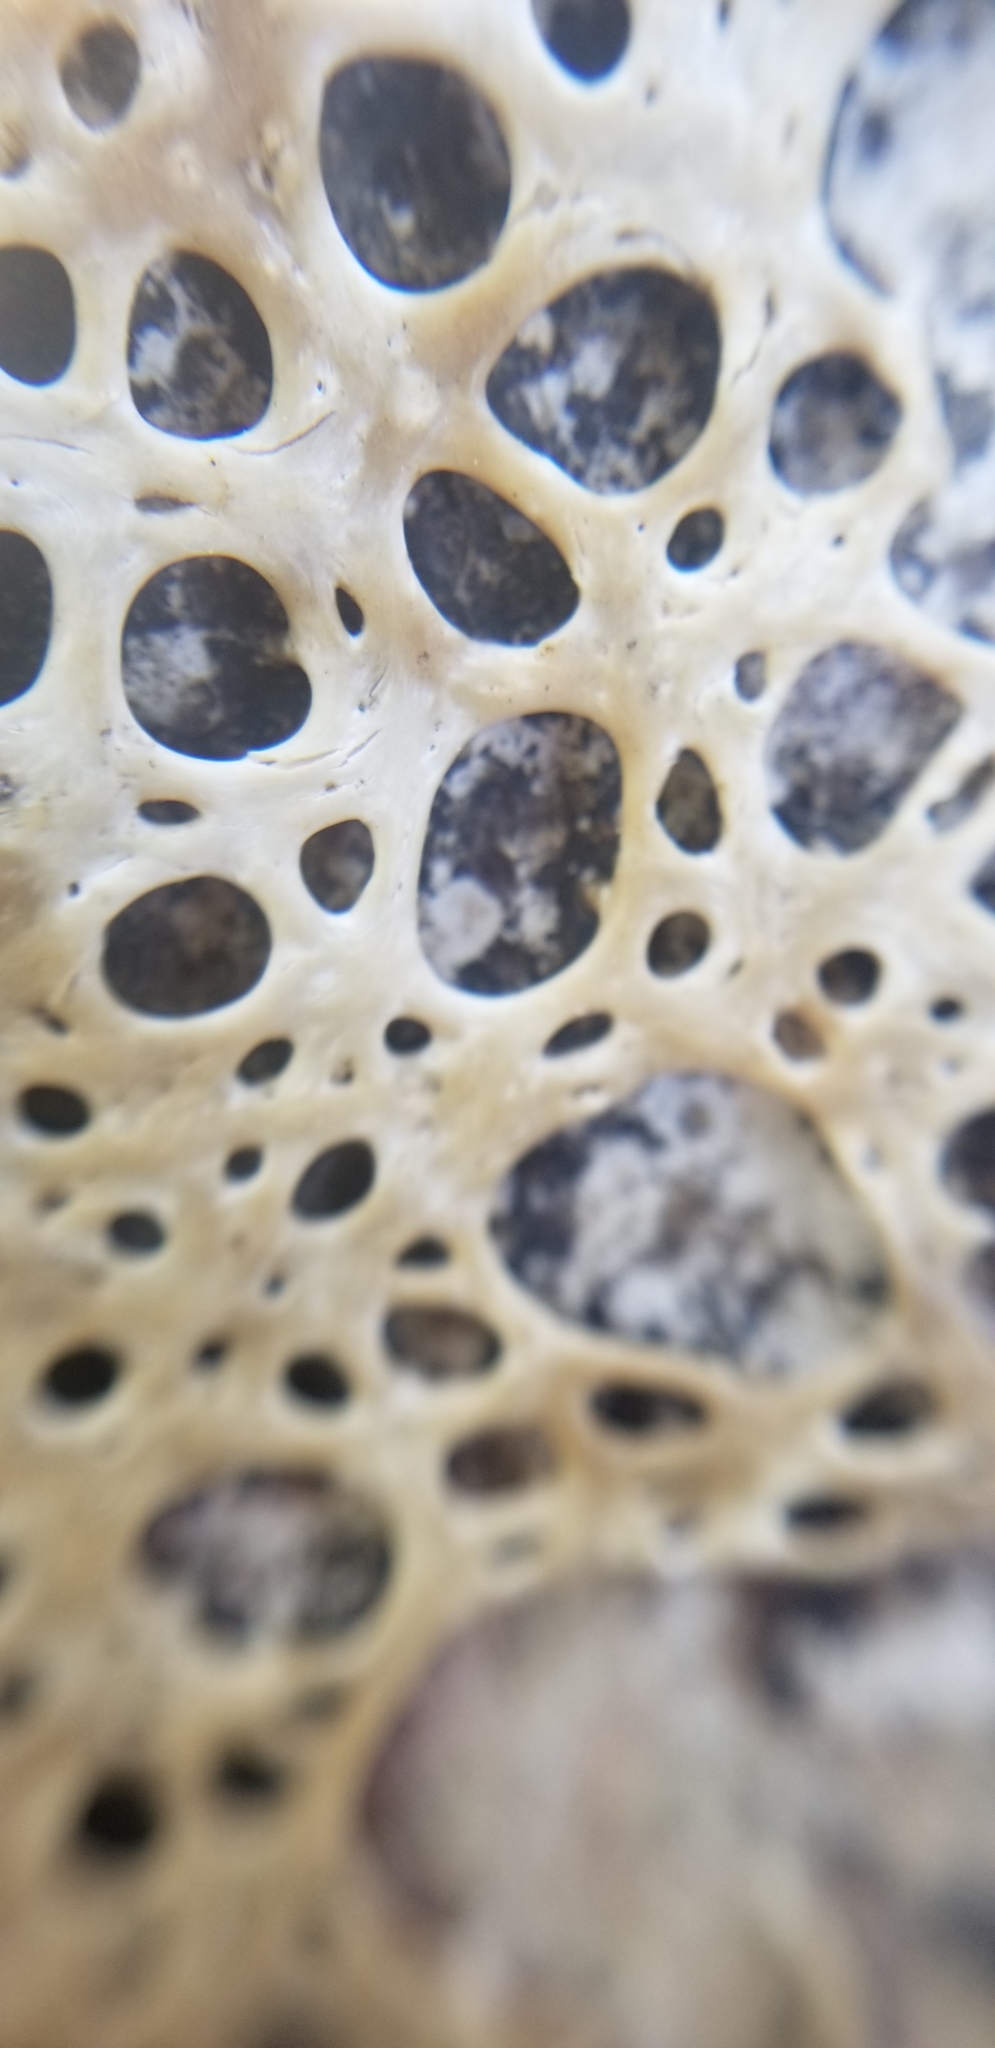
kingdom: Animalia
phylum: Arthropoda
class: Merostomata
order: Xiphosurida
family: Limulidae
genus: Limulus
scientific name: Limulus polyphemus
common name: Horseshoe crab
